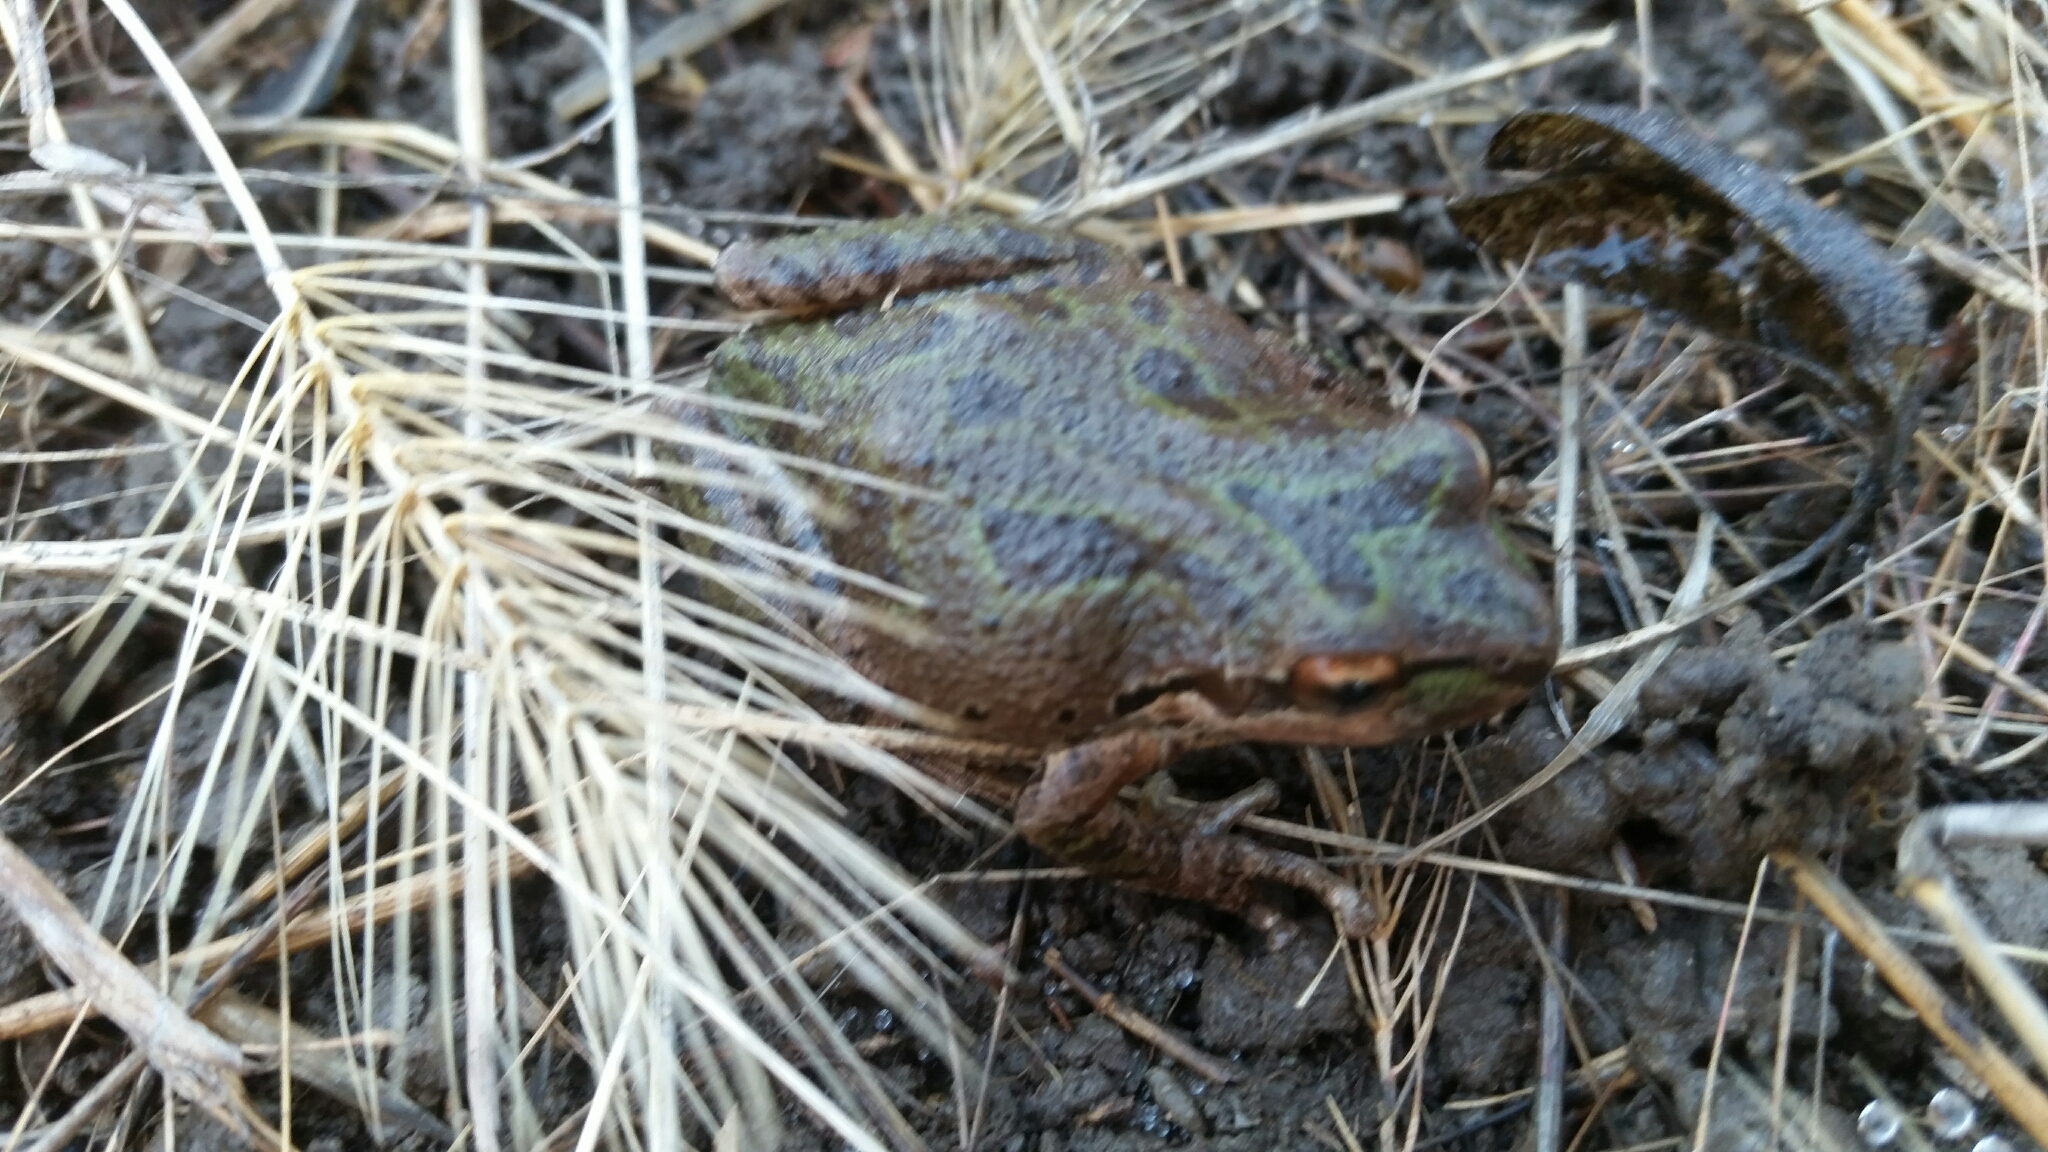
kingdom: Animalia
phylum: Chordata
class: Amphibia
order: Anura
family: Hylidae
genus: Pseudacris
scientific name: Pseudacris regilla
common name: Pacific chorus frog
